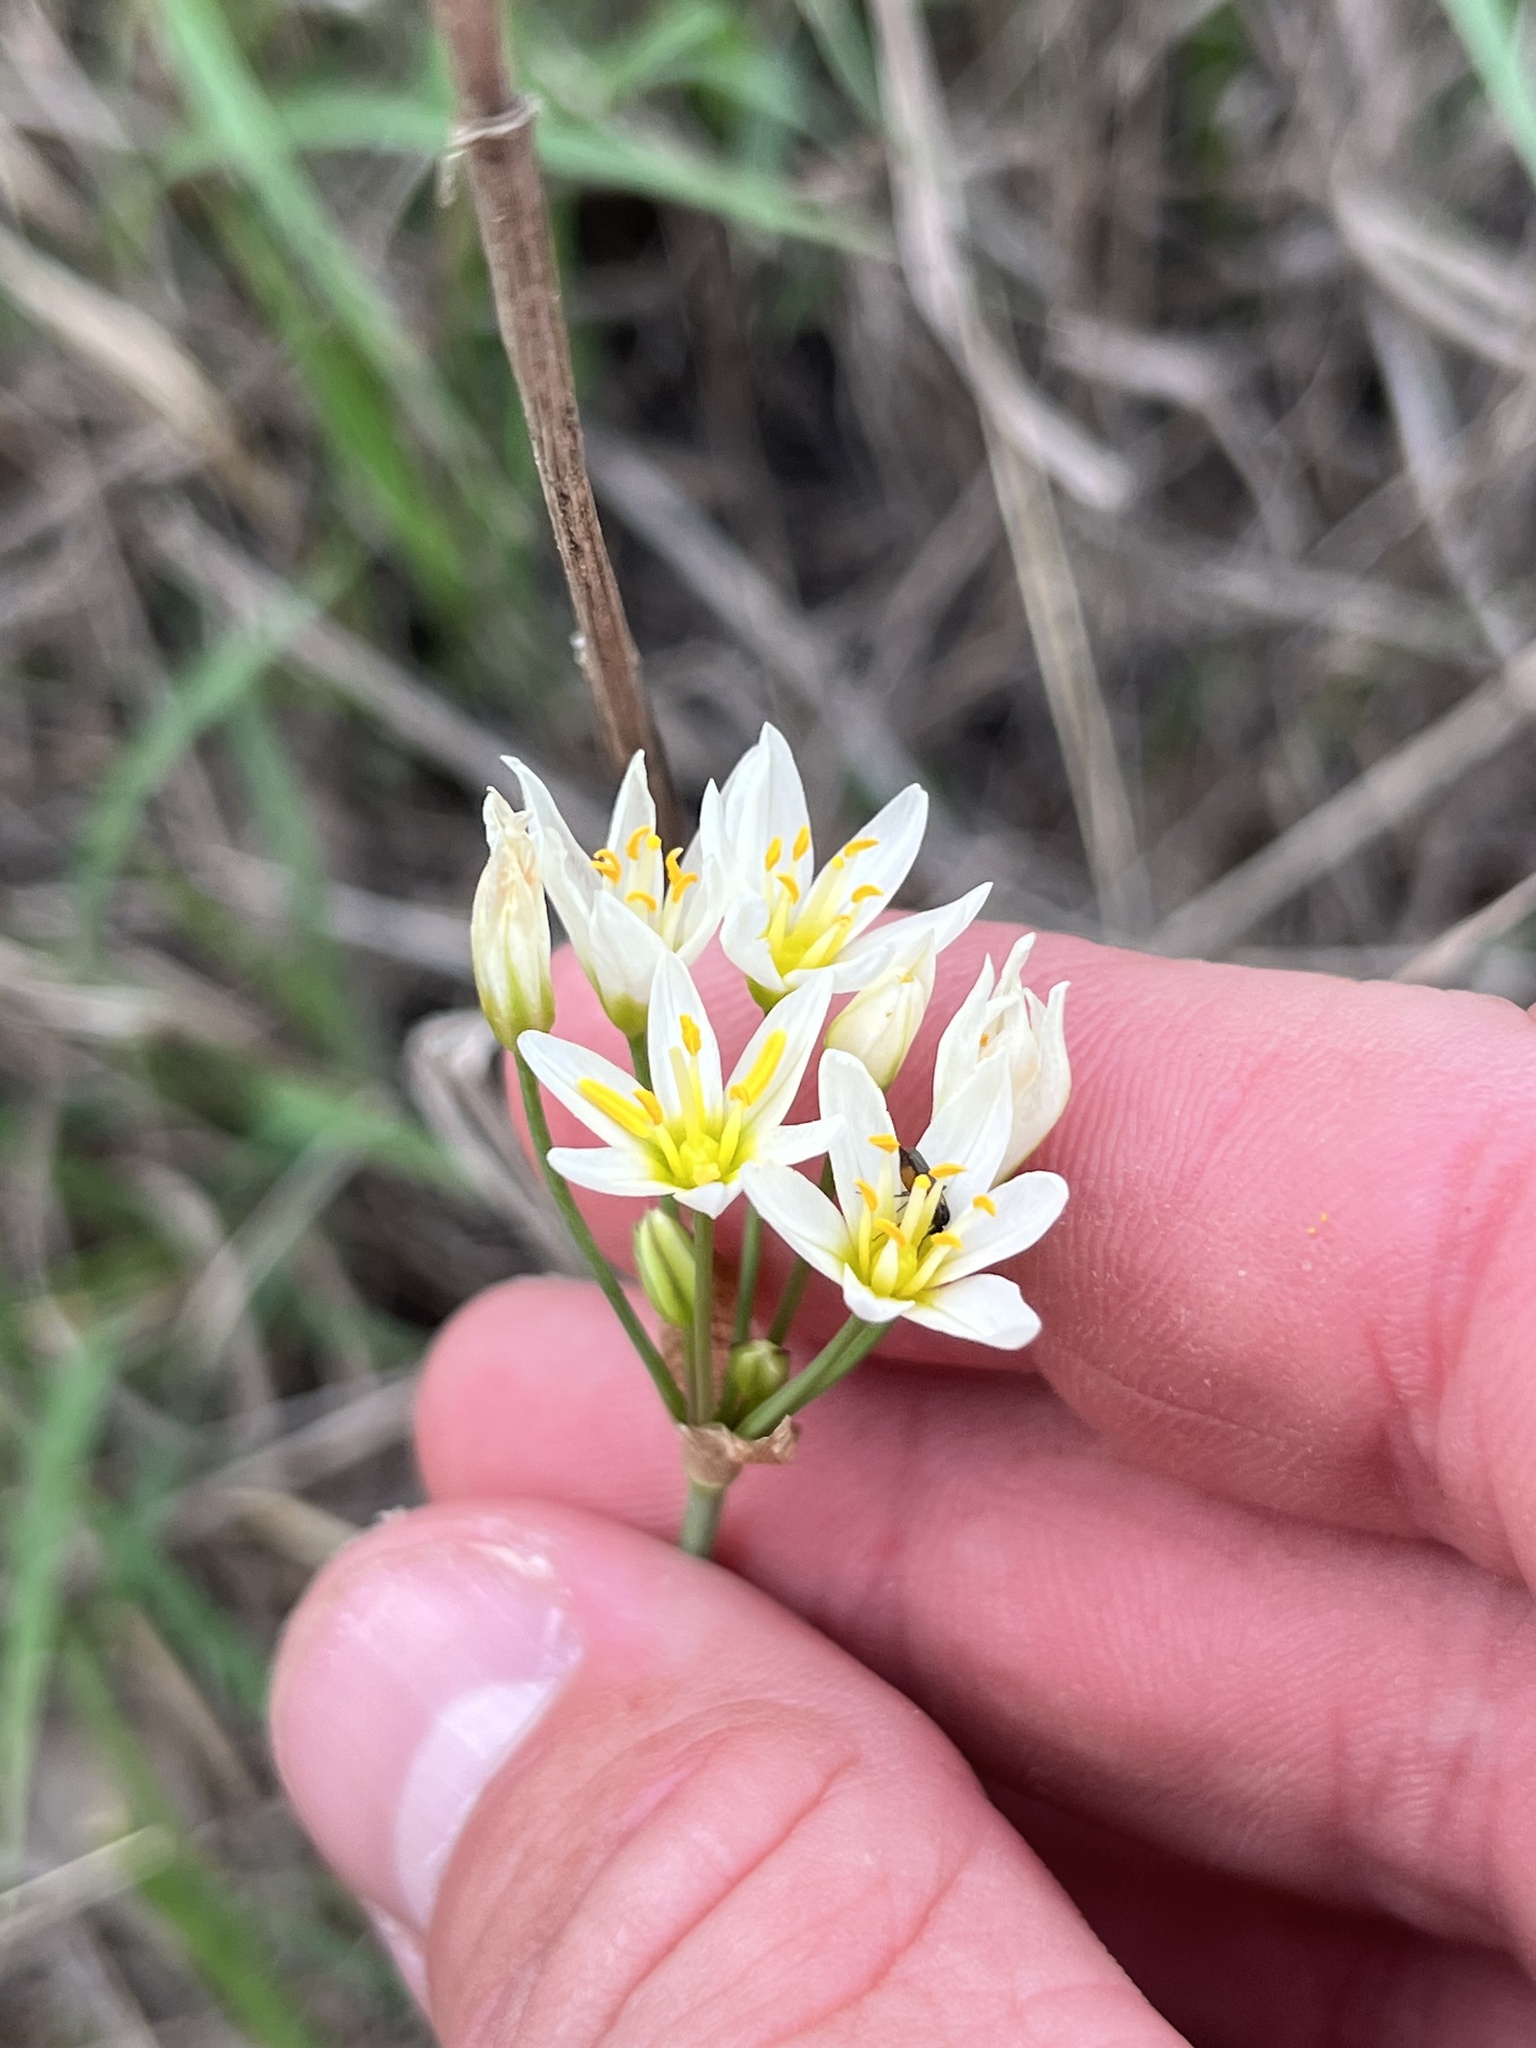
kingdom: Plantae
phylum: Tracheophyta
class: Liliopsida
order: Asparagales
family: Amaryllidaceae
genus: Nothoscordum
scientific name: Nothoscordum bivalve
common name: Crow-poison
